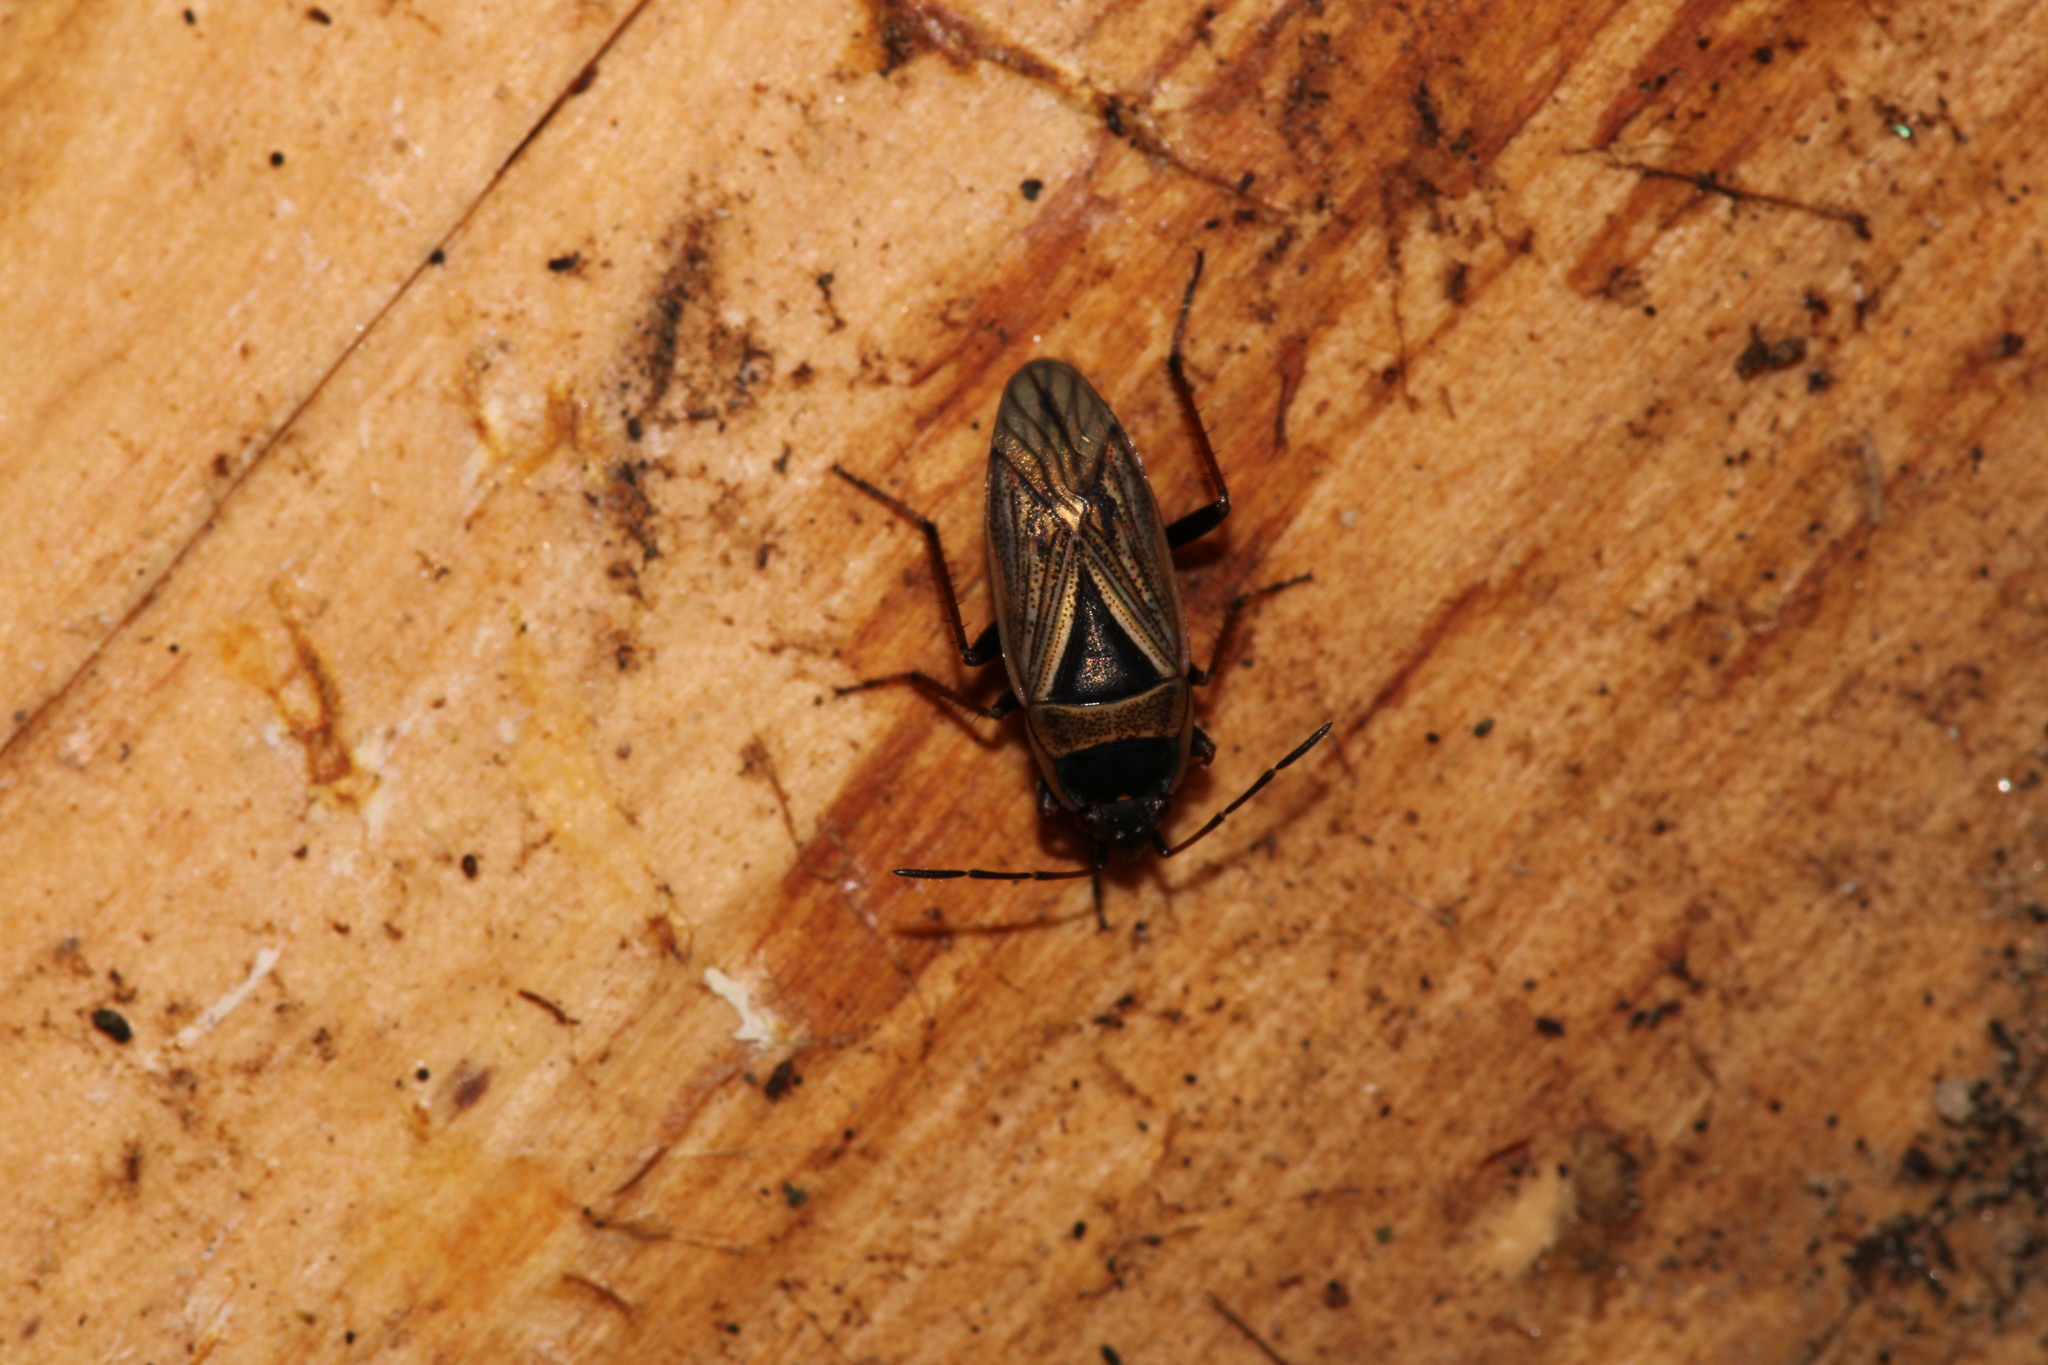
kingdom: Animalia
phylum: Arthropoda
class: Insecta
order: Hemiptera
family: Rhyparochromidae
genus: Xanthochilus
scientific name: Xanthochilus quadratus
